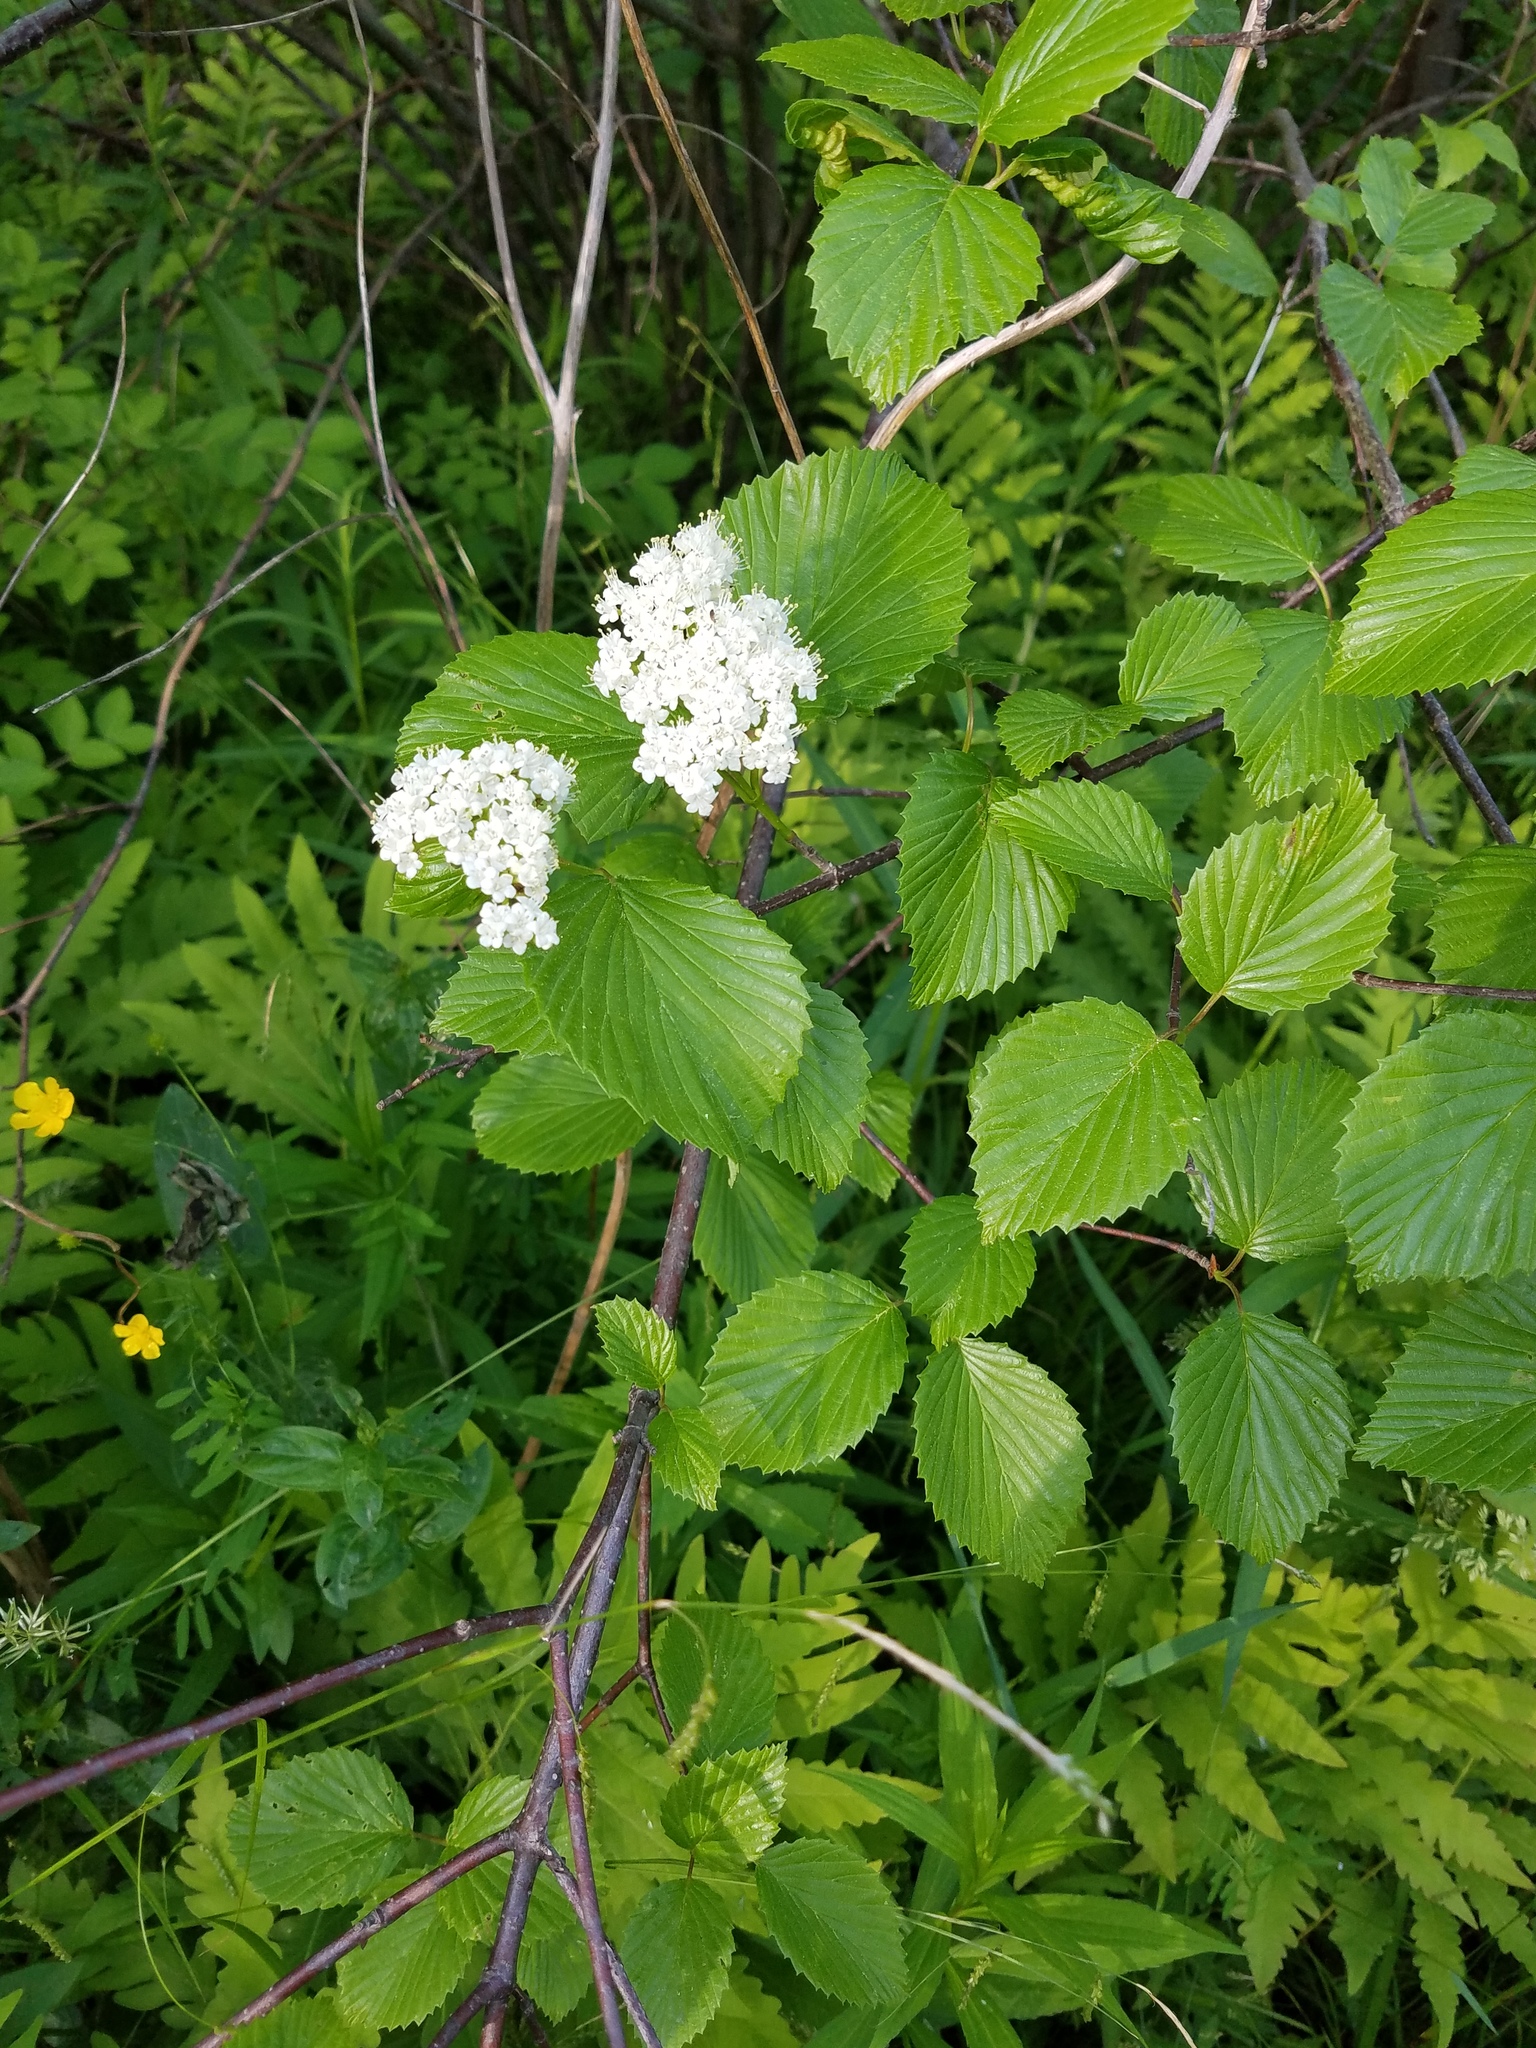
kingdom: Plantae
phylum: Tracheophyta
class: Magnoliopsida
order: Dipsacales
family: Viburnaceae
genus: Viburnum
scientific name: Viburnum recognitum
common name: Northern arrow-wood
